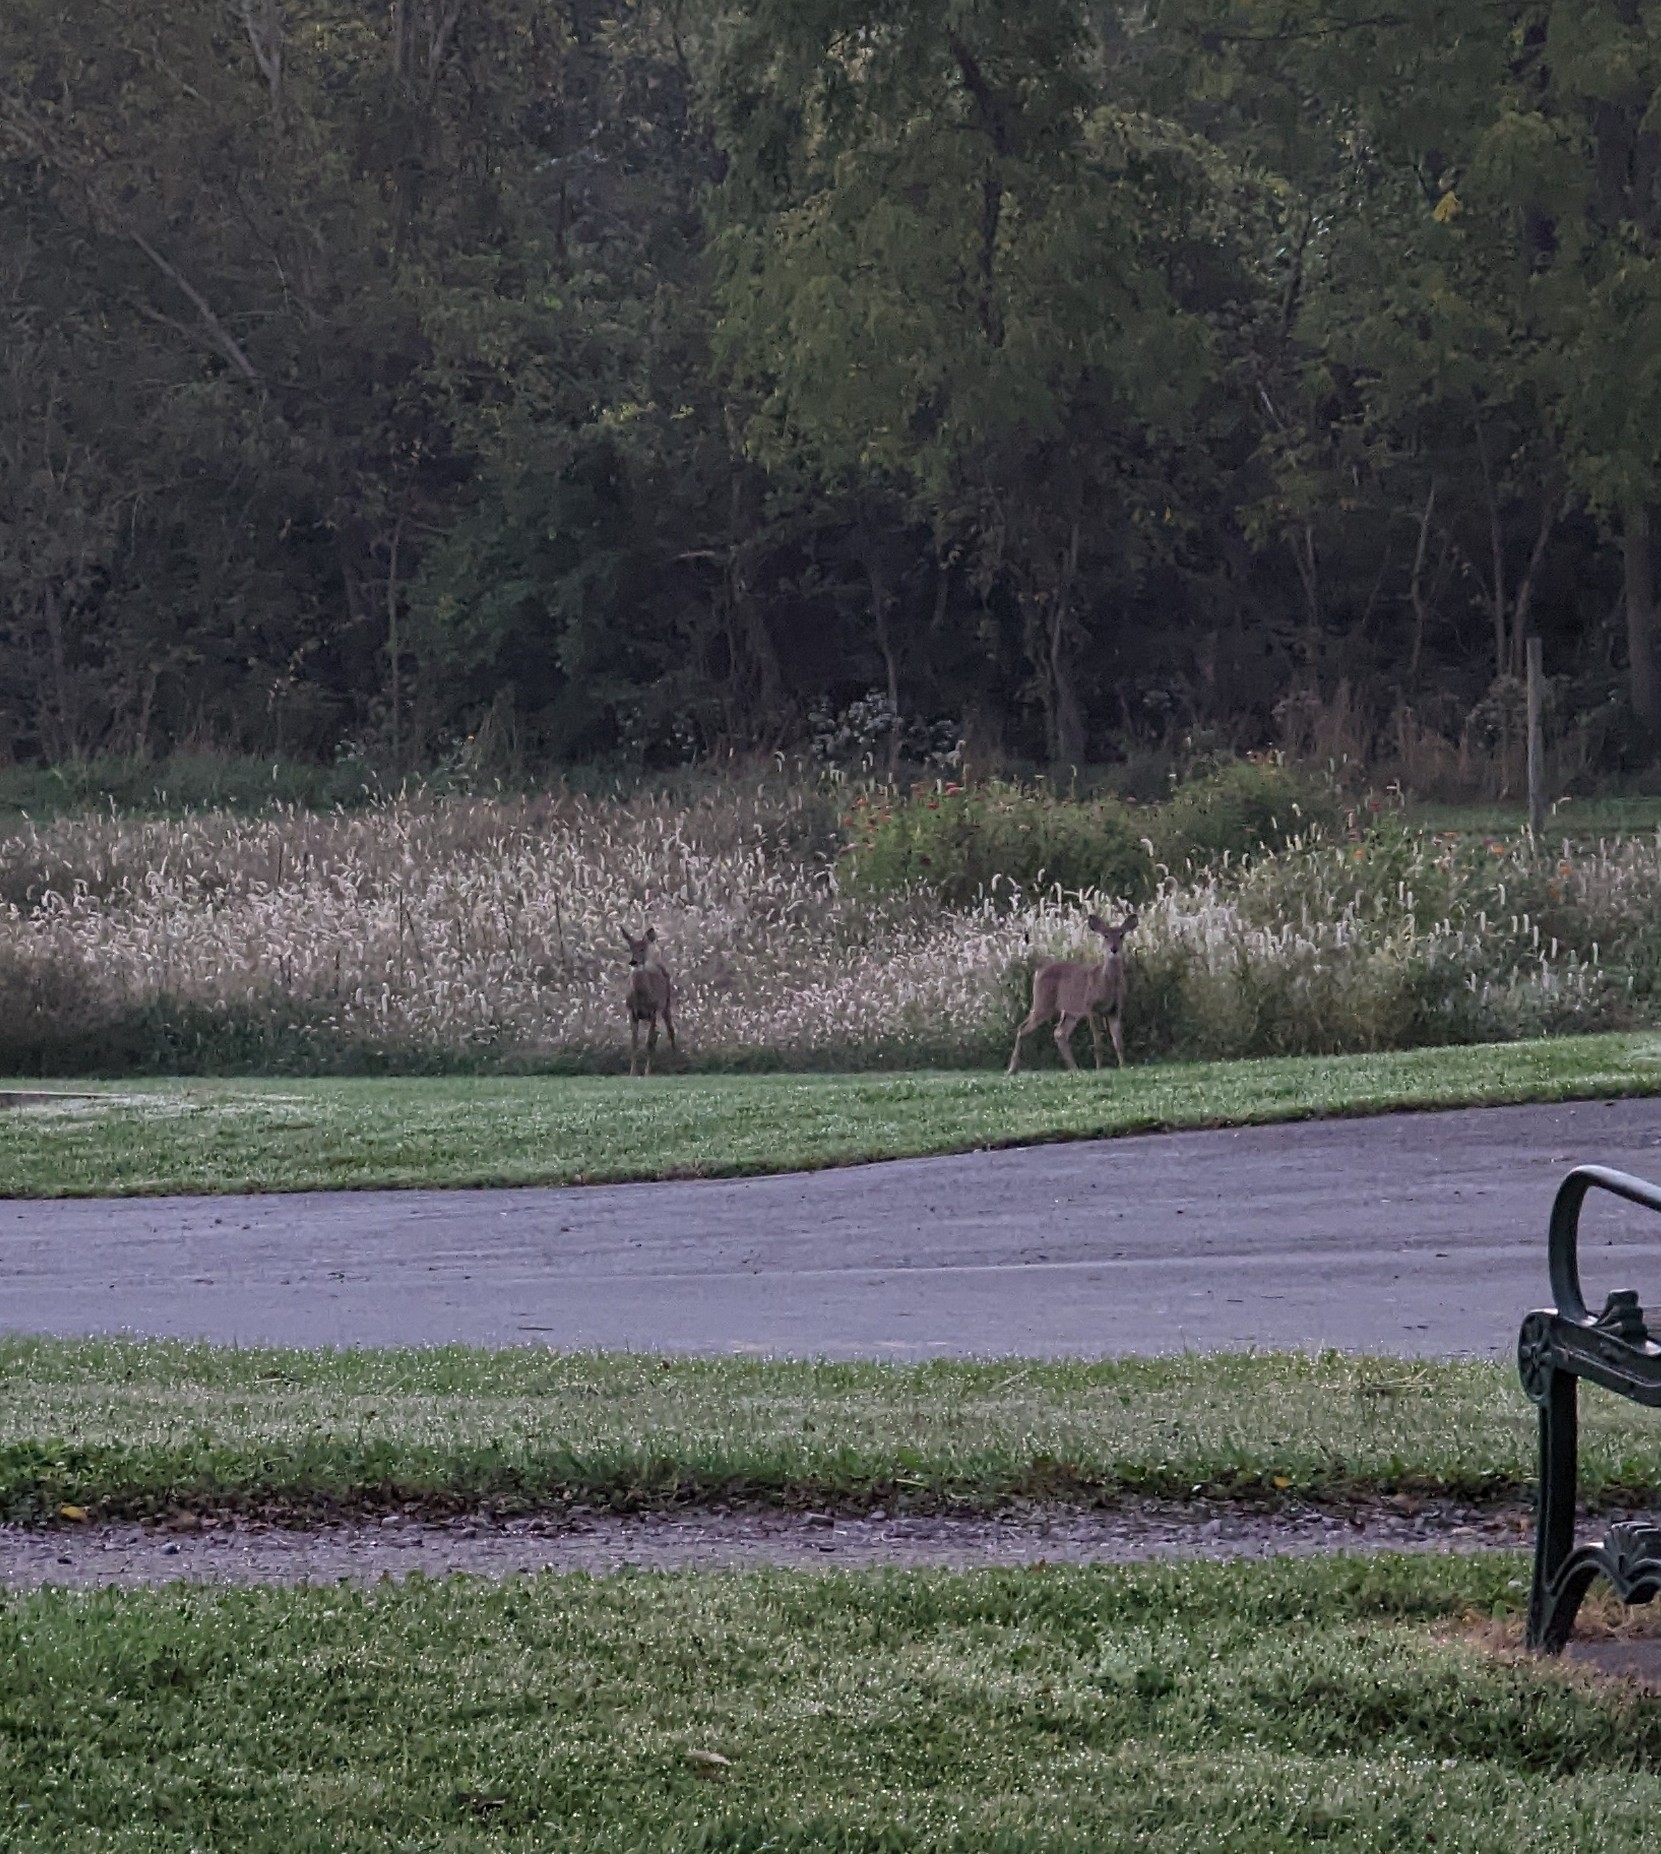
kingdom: Animalia
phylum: Chordata
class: Mammalia
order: Artiodactyla
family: Cervidae
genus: Odocoileus
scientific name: Odocoileus virginianus
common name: White-tailed deer
